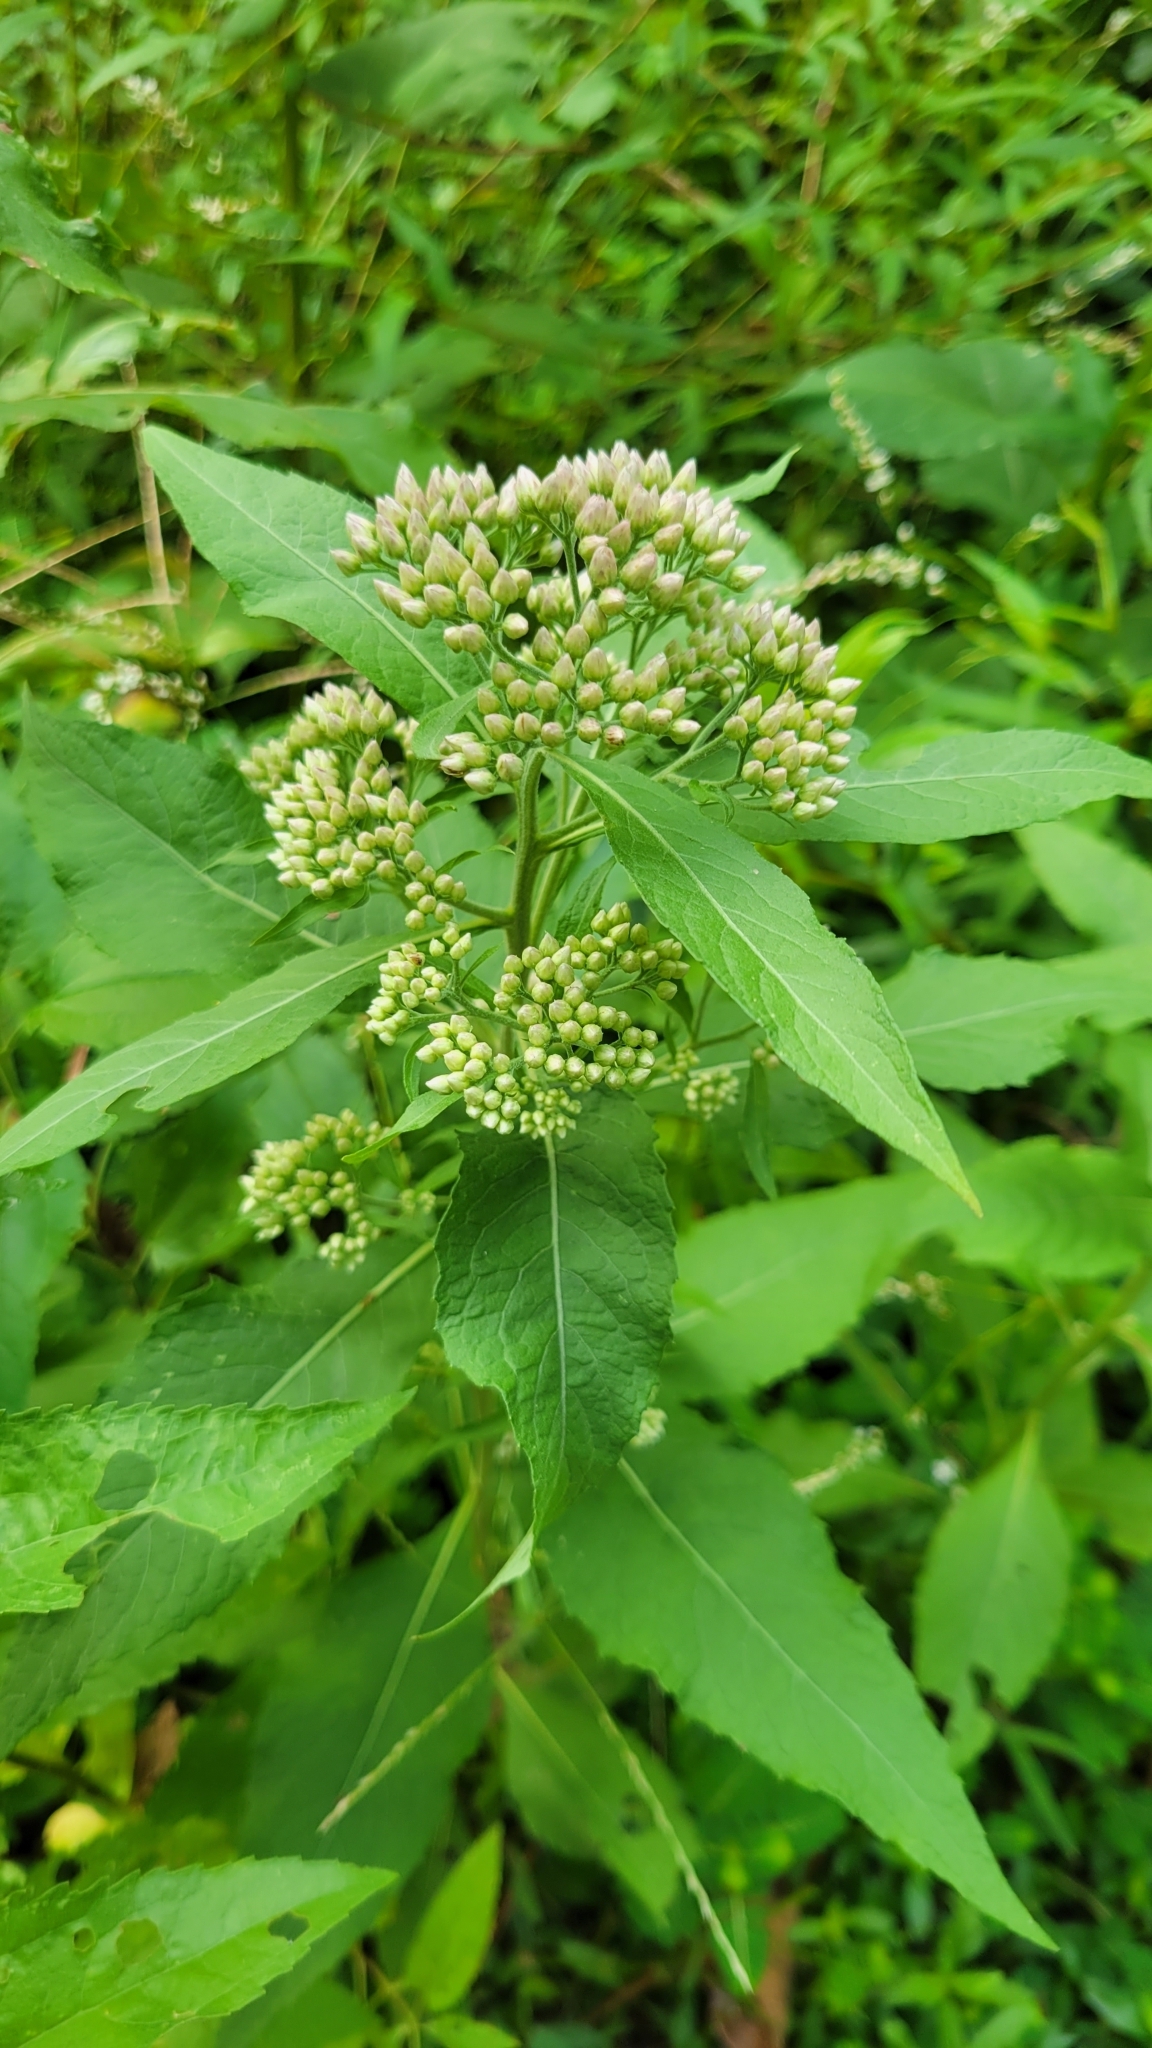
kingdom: Plantae
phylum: Tracheophyta
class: Magnoliopsida
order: Asterales
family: Asteraceae
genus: Pluchea
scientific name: Pluchea camphorata
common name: Camphor pluchea
